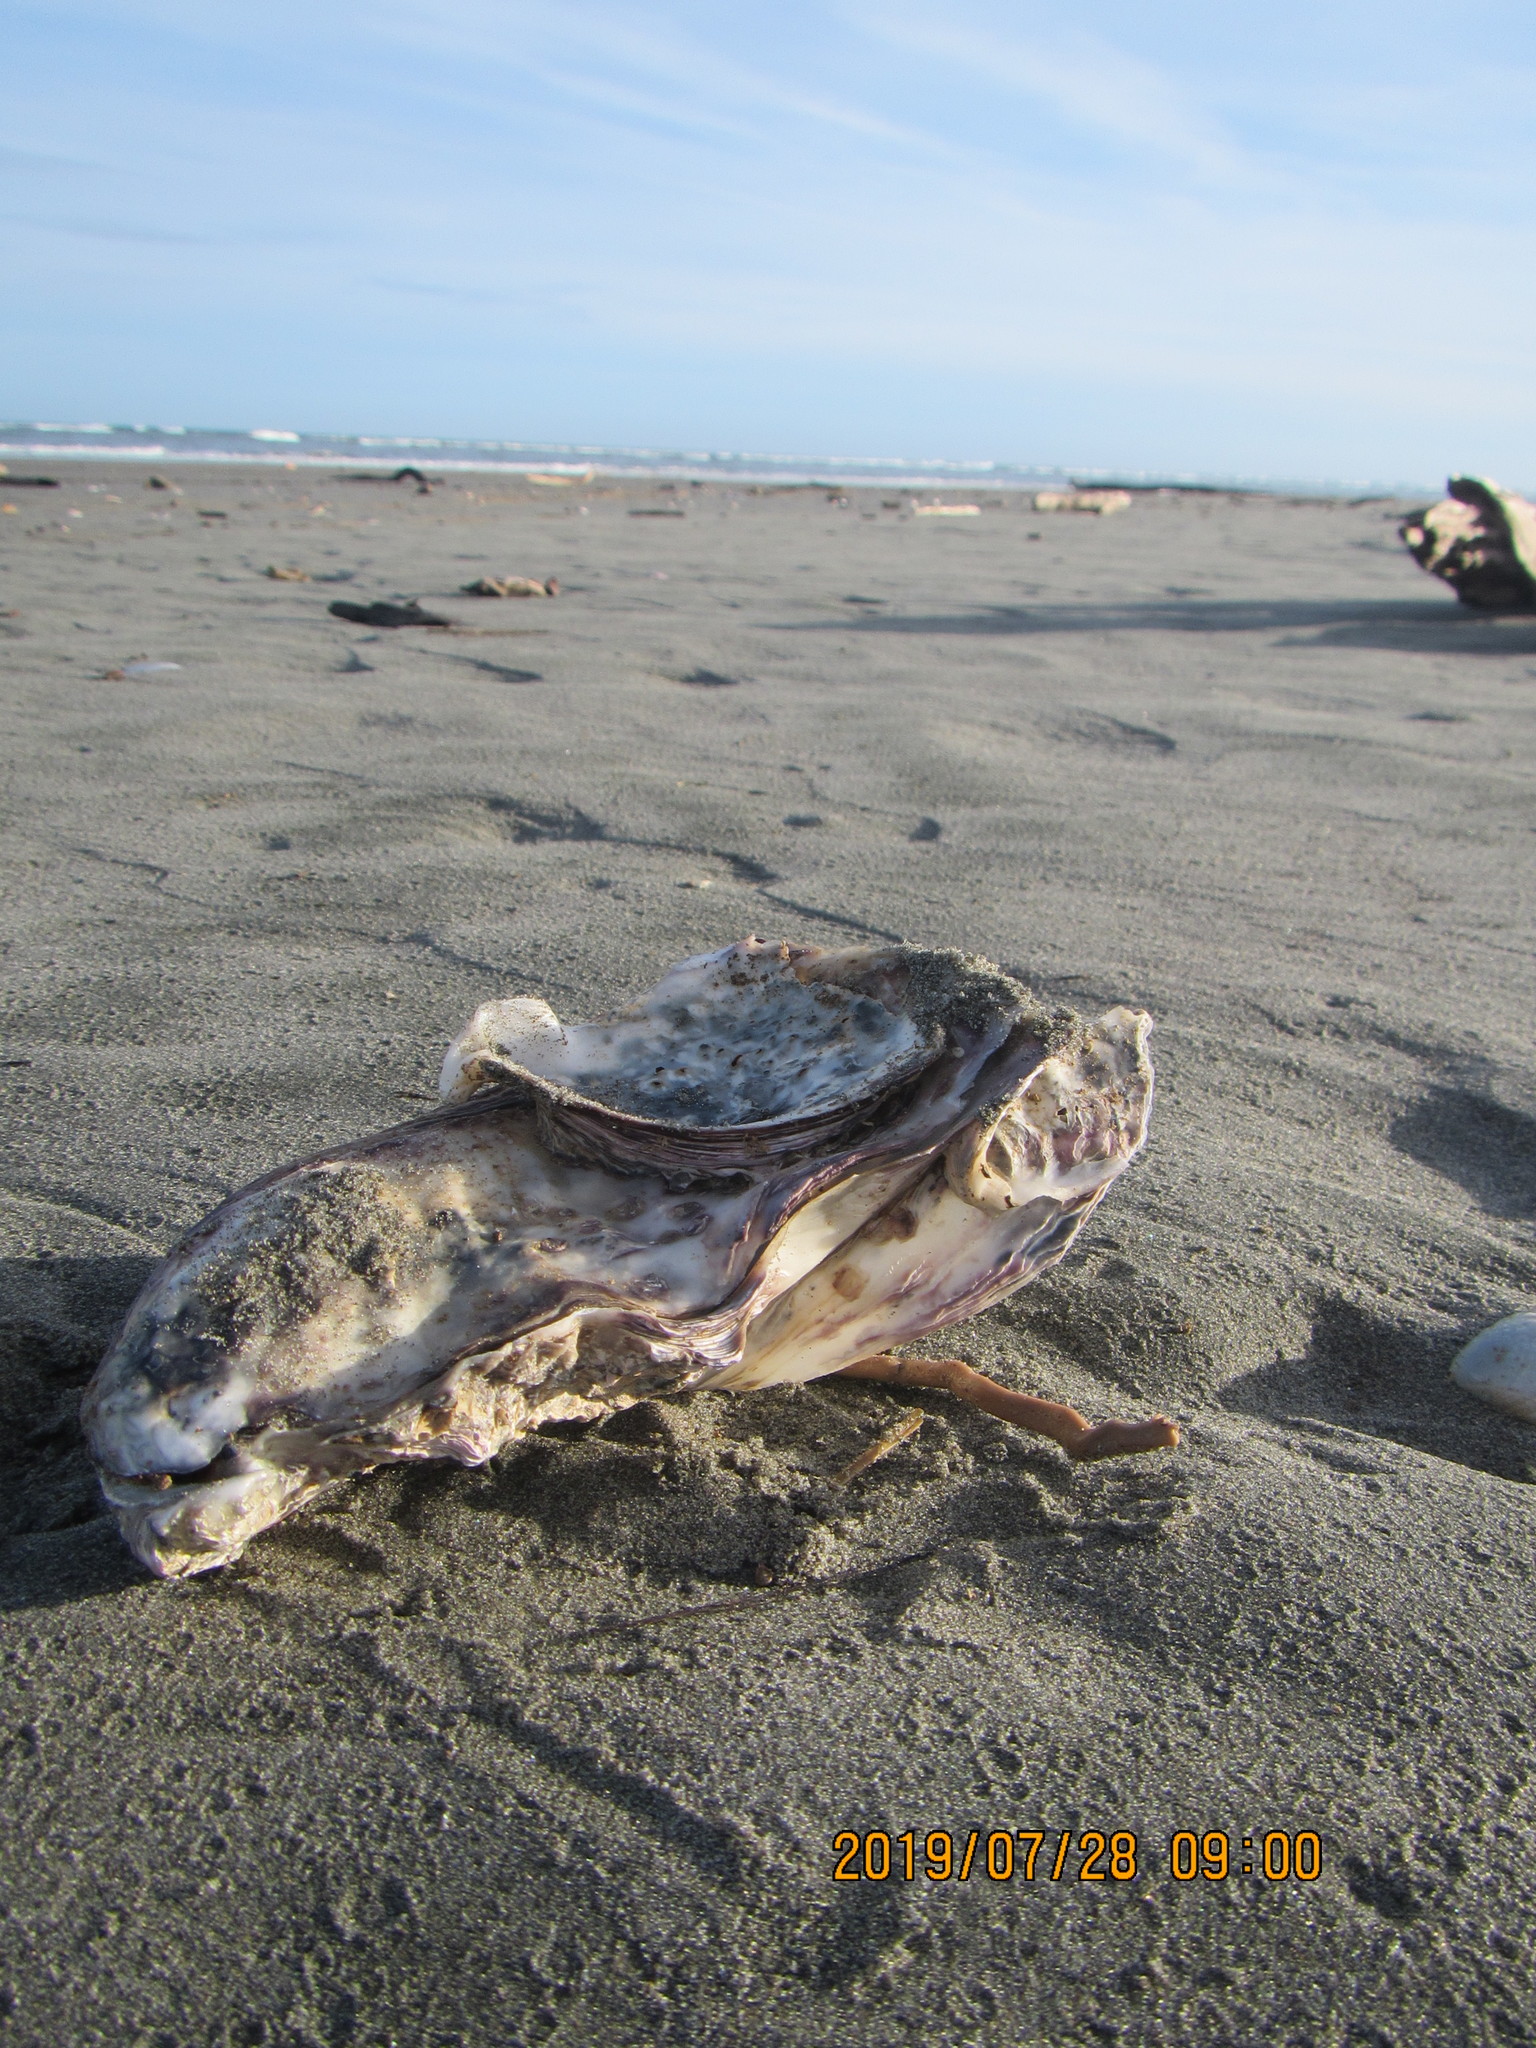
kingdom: Animalia
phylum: Mollusca
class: Bivalvia
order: Ostreida
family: Ostreidae
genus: Magallana
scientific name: Magallana gigas
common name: Pacific oyster
